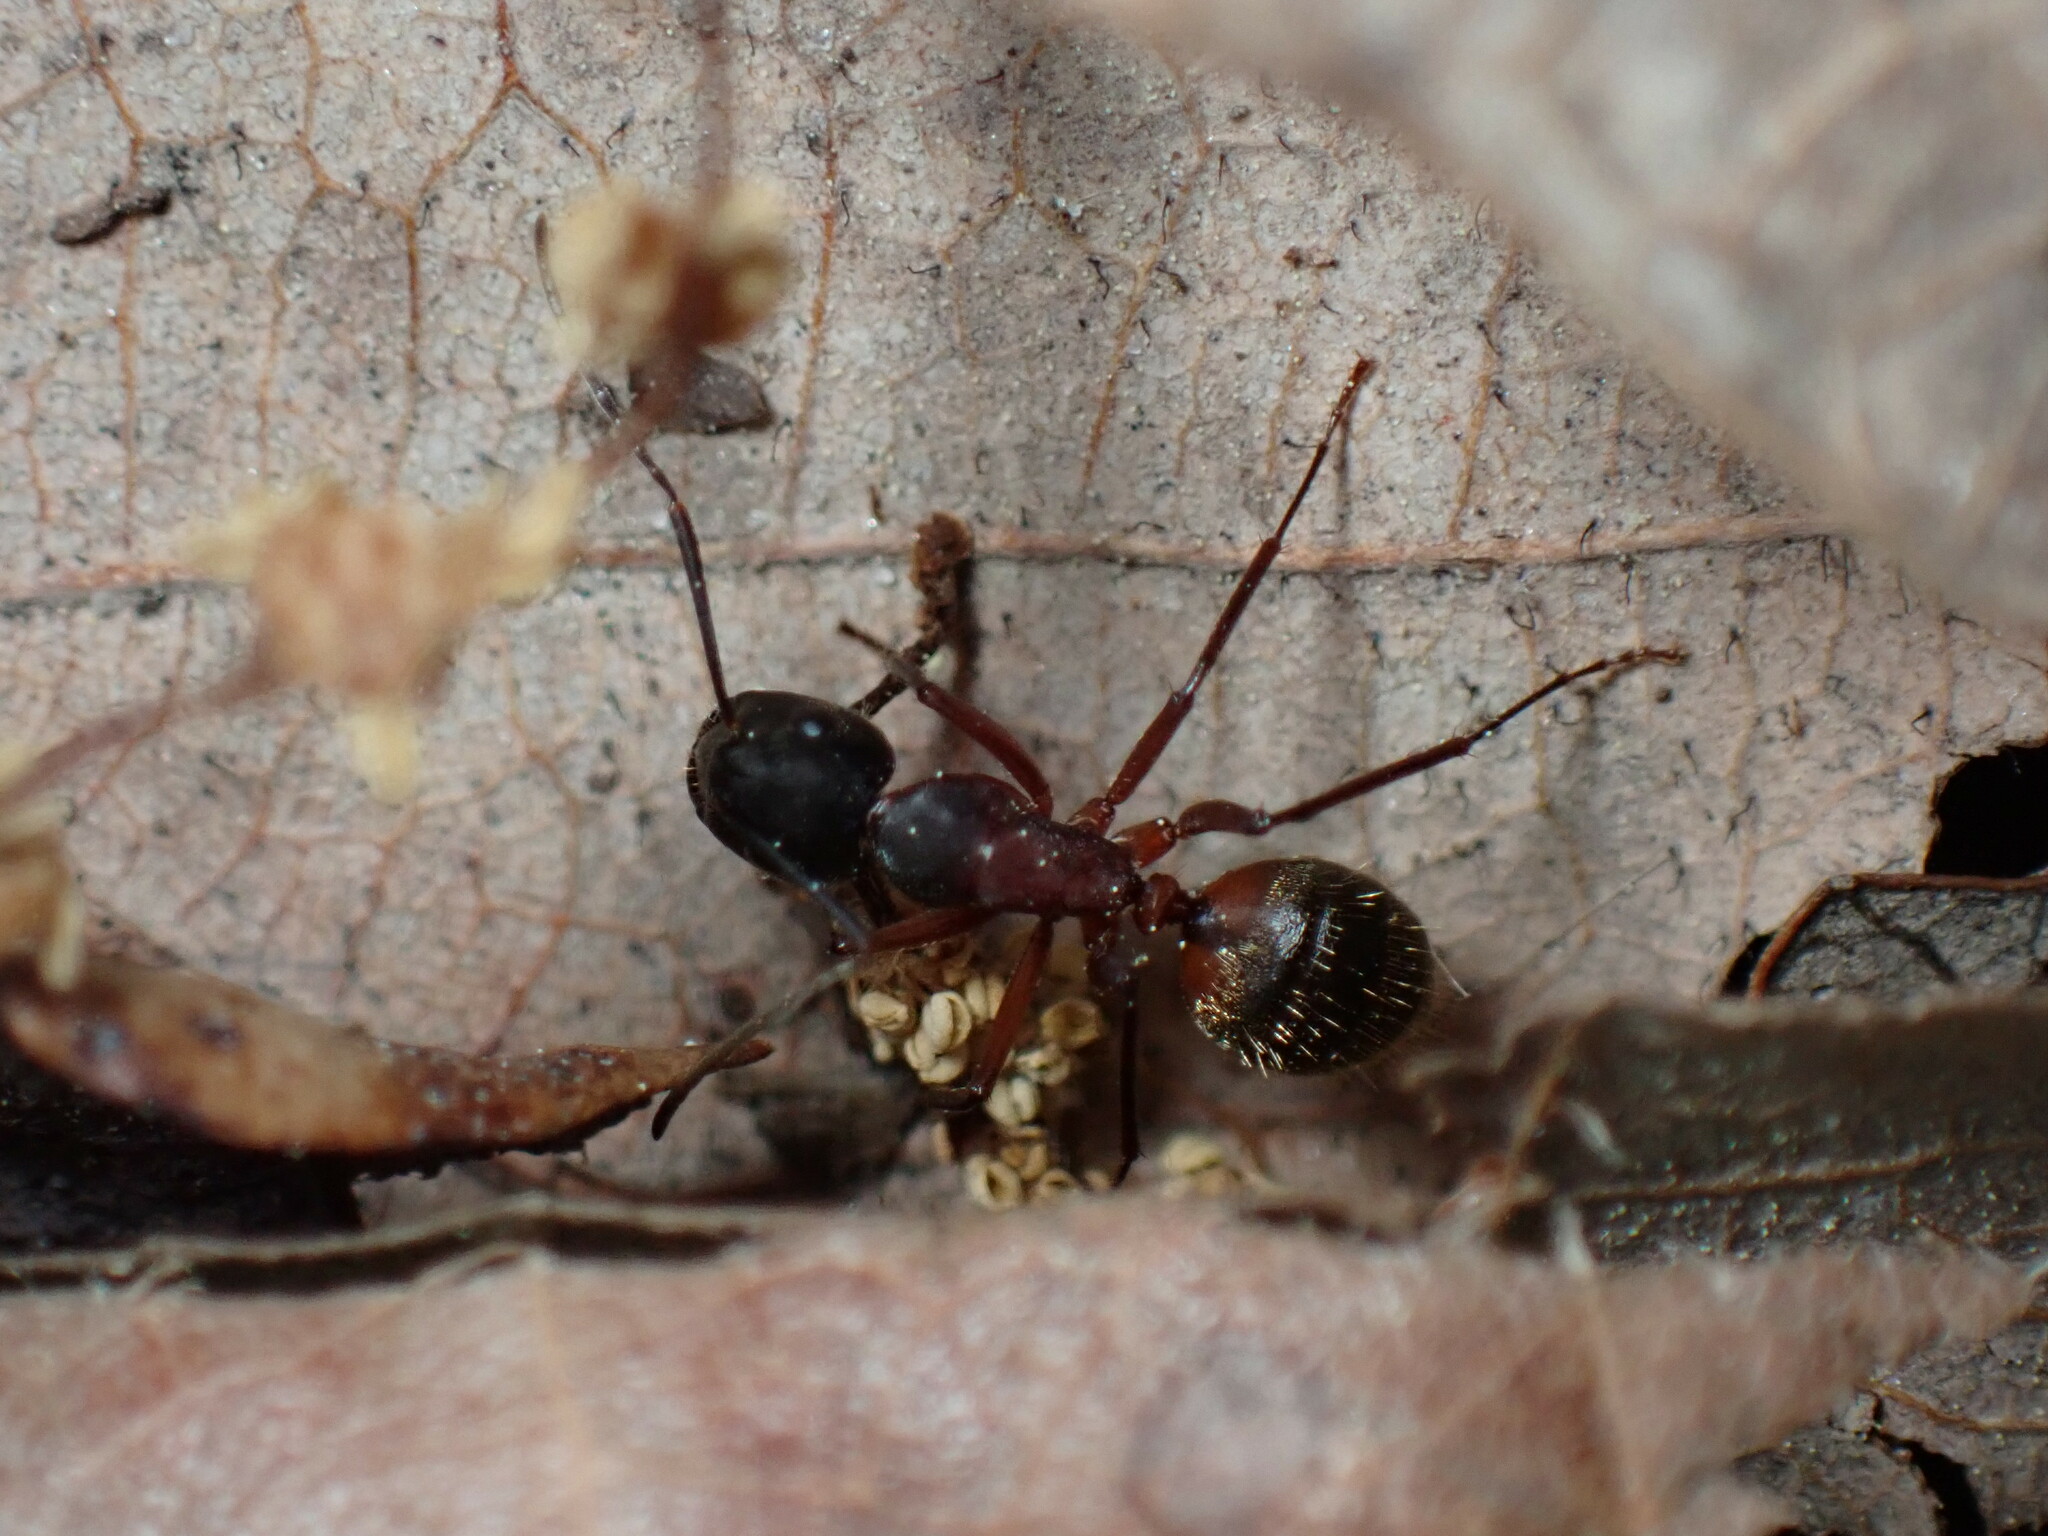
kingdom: Animalia
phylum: Arthropoda
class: Insecta
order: Hymenoptera
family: Formicidae
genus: Camponotus
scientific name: Camponotus chromaiodes
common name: Red carpenter ant
